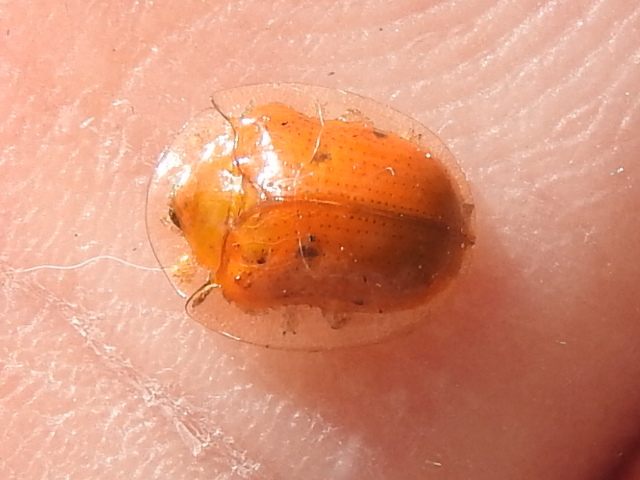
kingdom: Animalia
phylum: Arthropoda
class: Insecta
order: Coleoptera
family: Chrysomelidae
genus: Charidotella
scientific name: Charidotella sexpunctata
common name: Golden tortoise beetle
